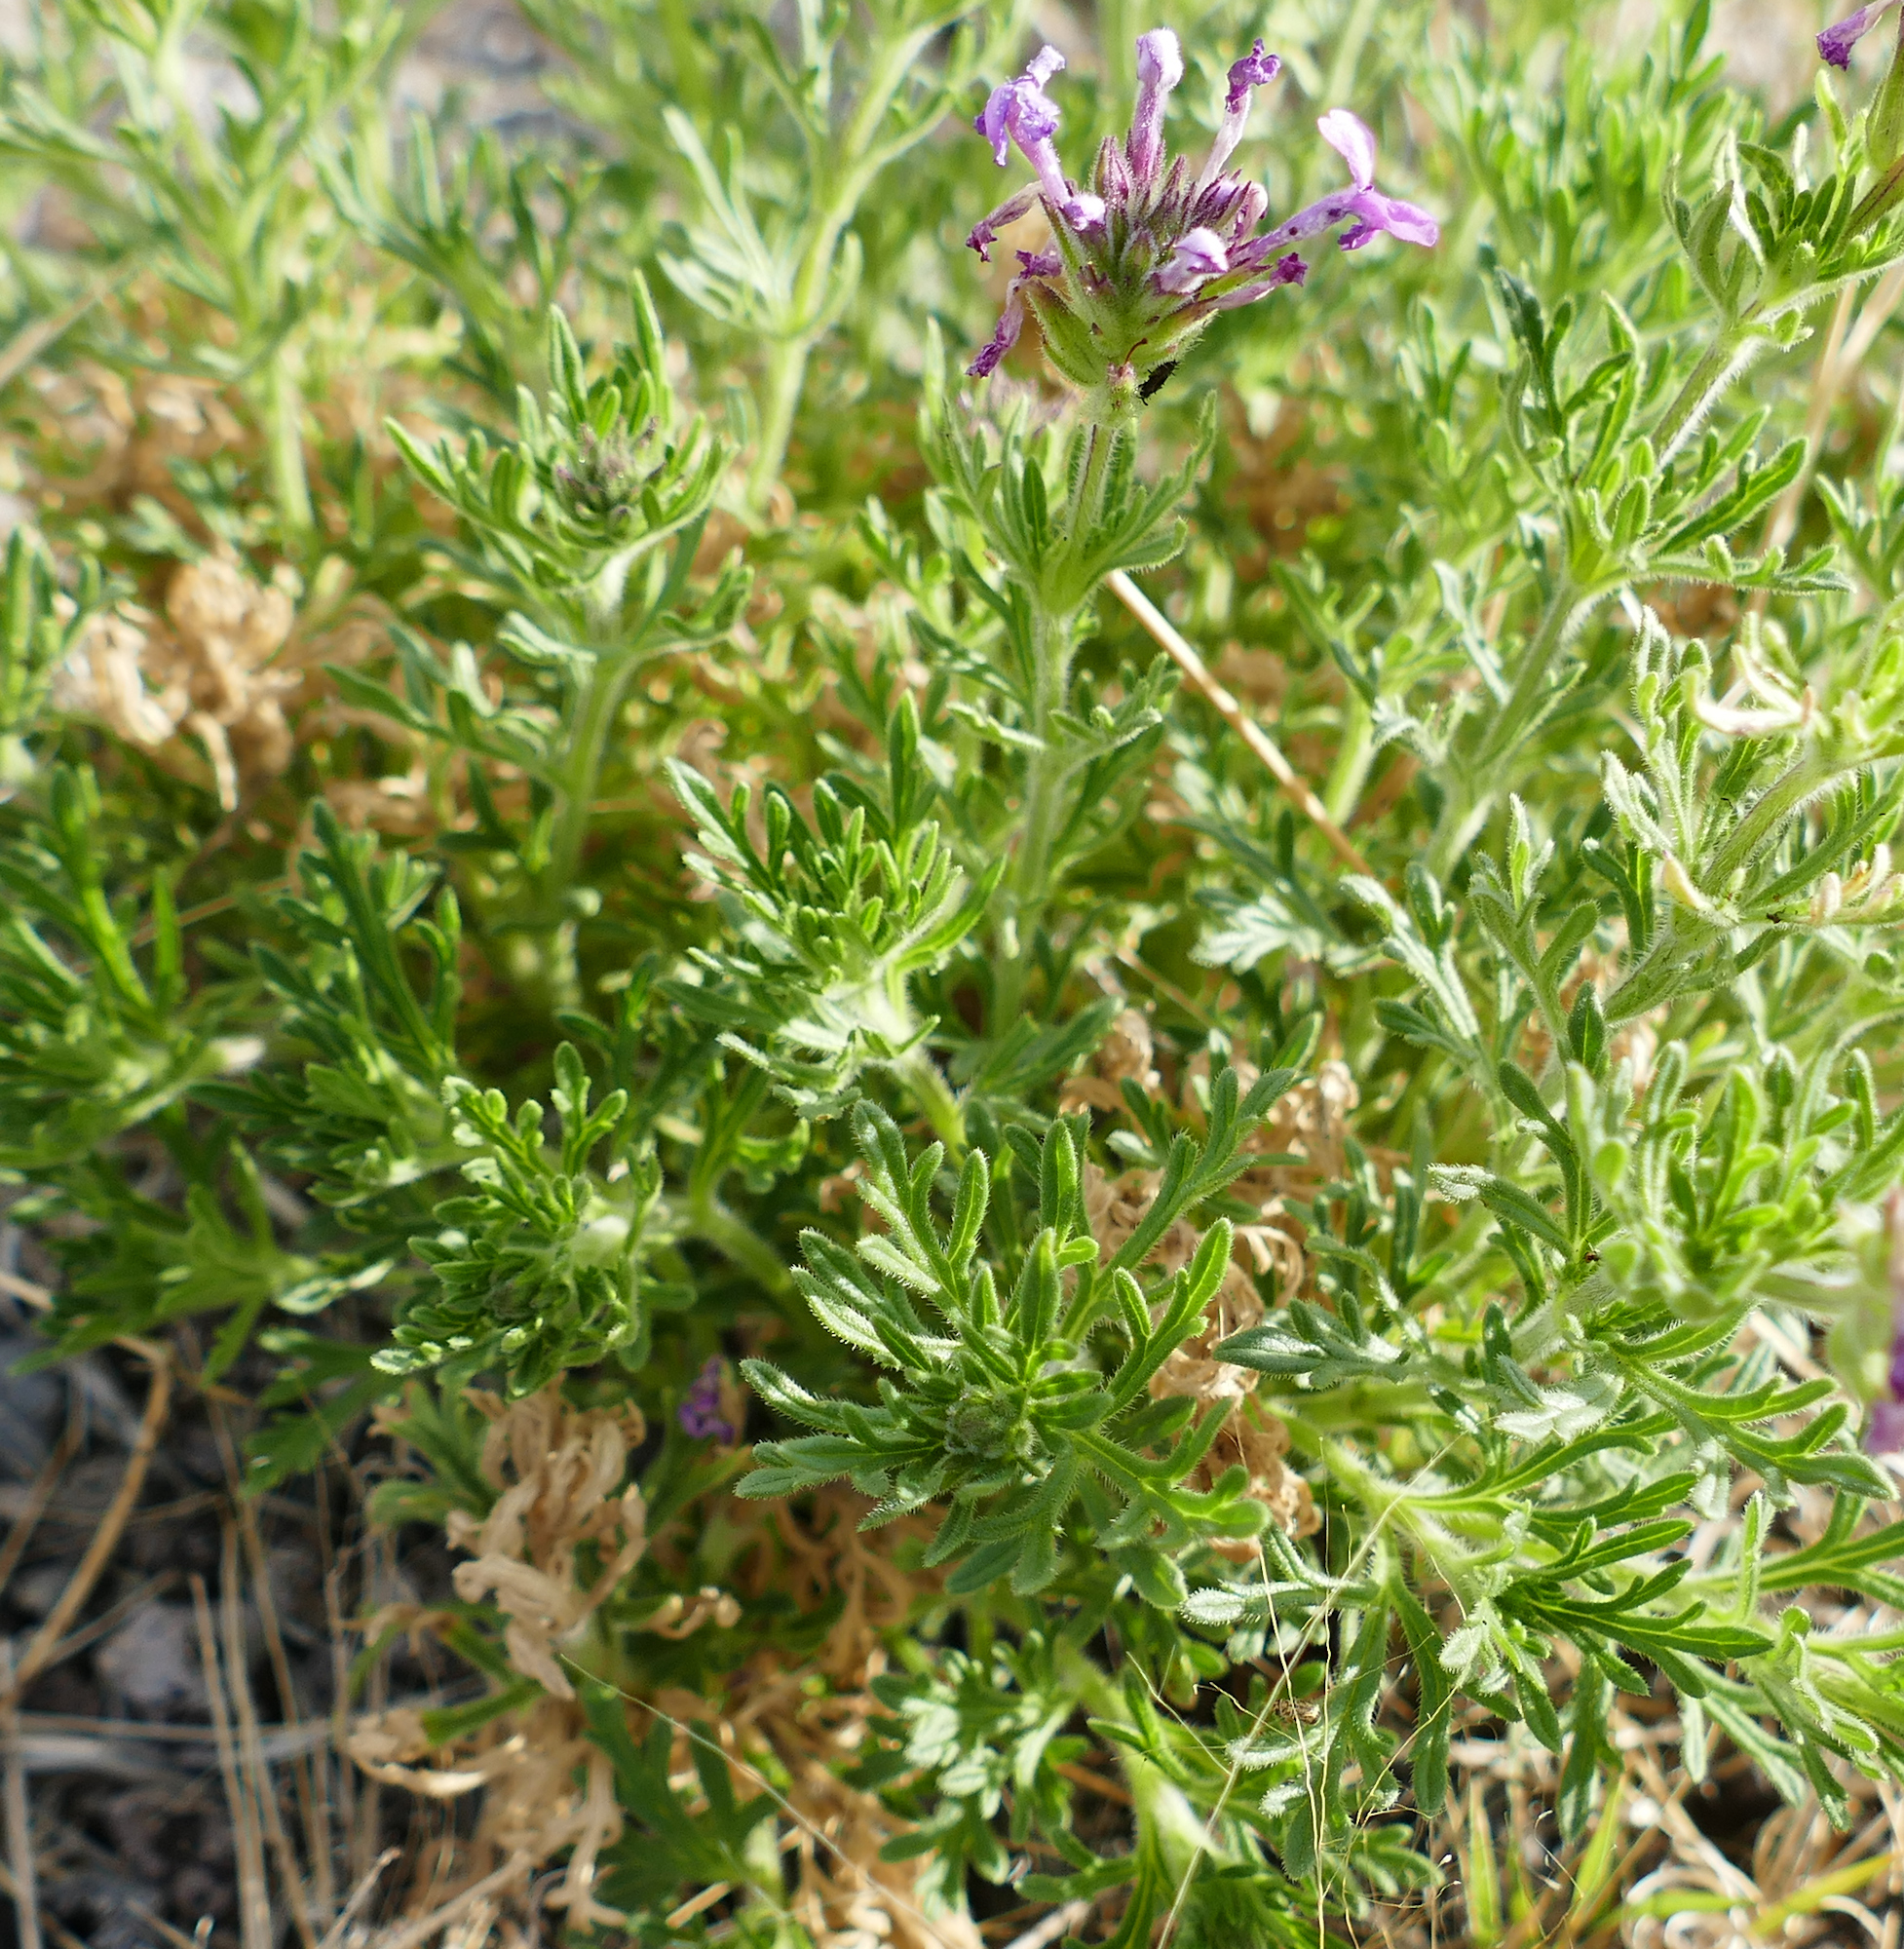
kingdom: Plantae
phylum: Tracheophyta
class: Magnoliopsida
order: Lamiales
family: Verbenaceae
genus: Verbena
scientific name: Verbena bipinnatifida
